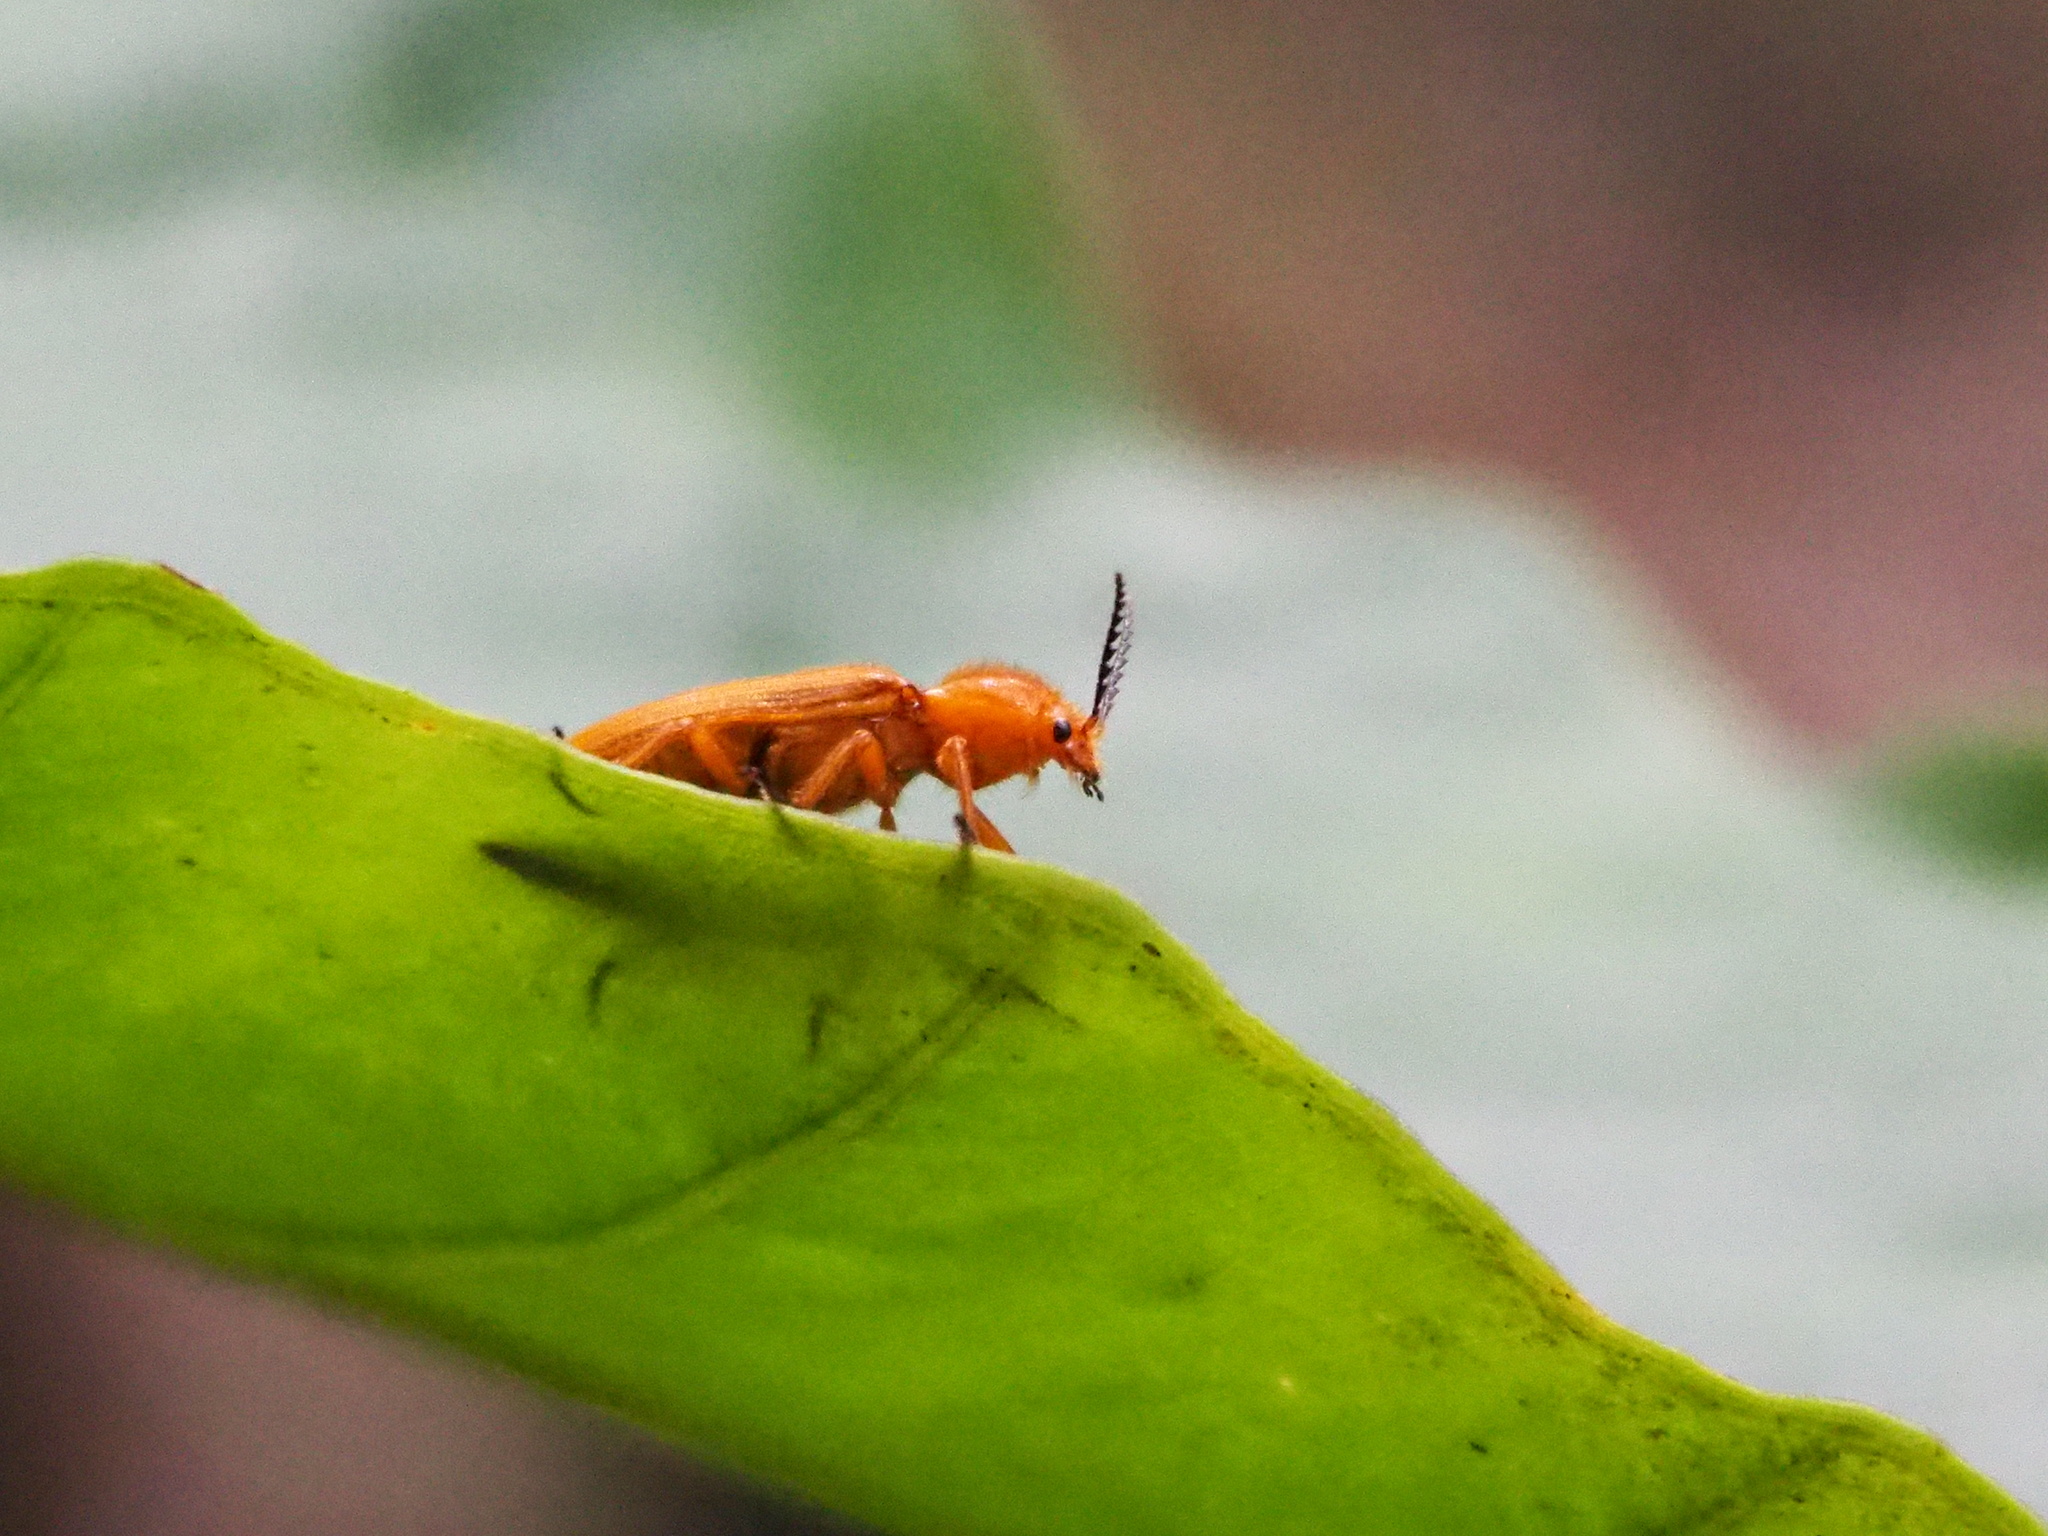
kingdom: Animalia
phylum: Arthropoda
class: Insecta
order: Coleoptera
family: Elateridae
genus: Hemiops
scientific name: Hemiops flava
